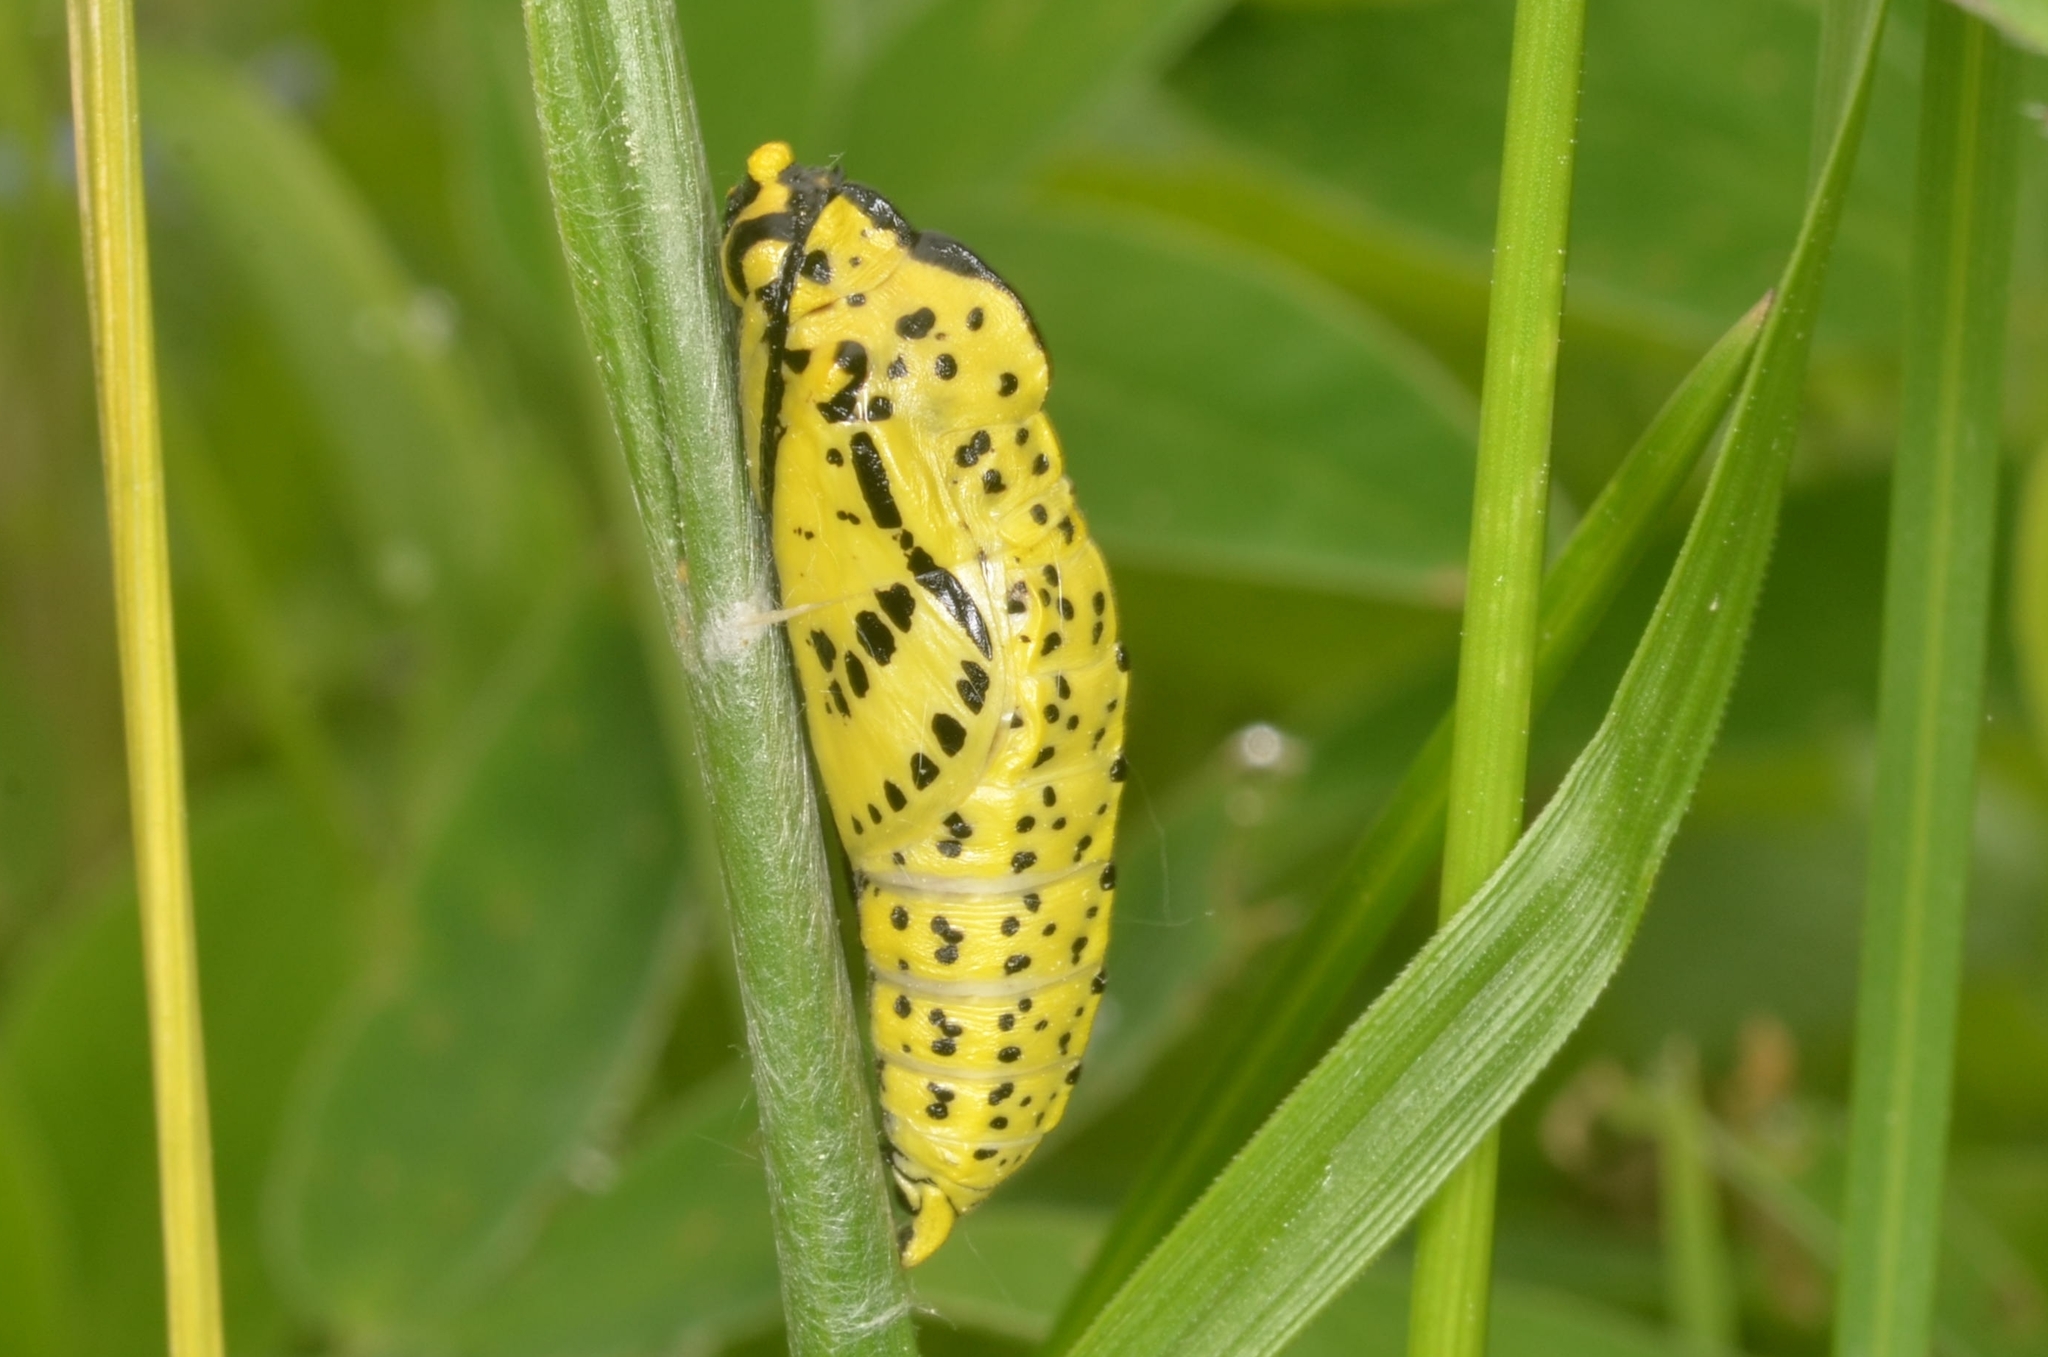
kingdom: Animalia
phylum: Arthropoda
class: Insecta
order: Lepidoptera
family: Pieridae
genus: Aporia
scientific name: Aporia crataegi
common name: Black-veined white
